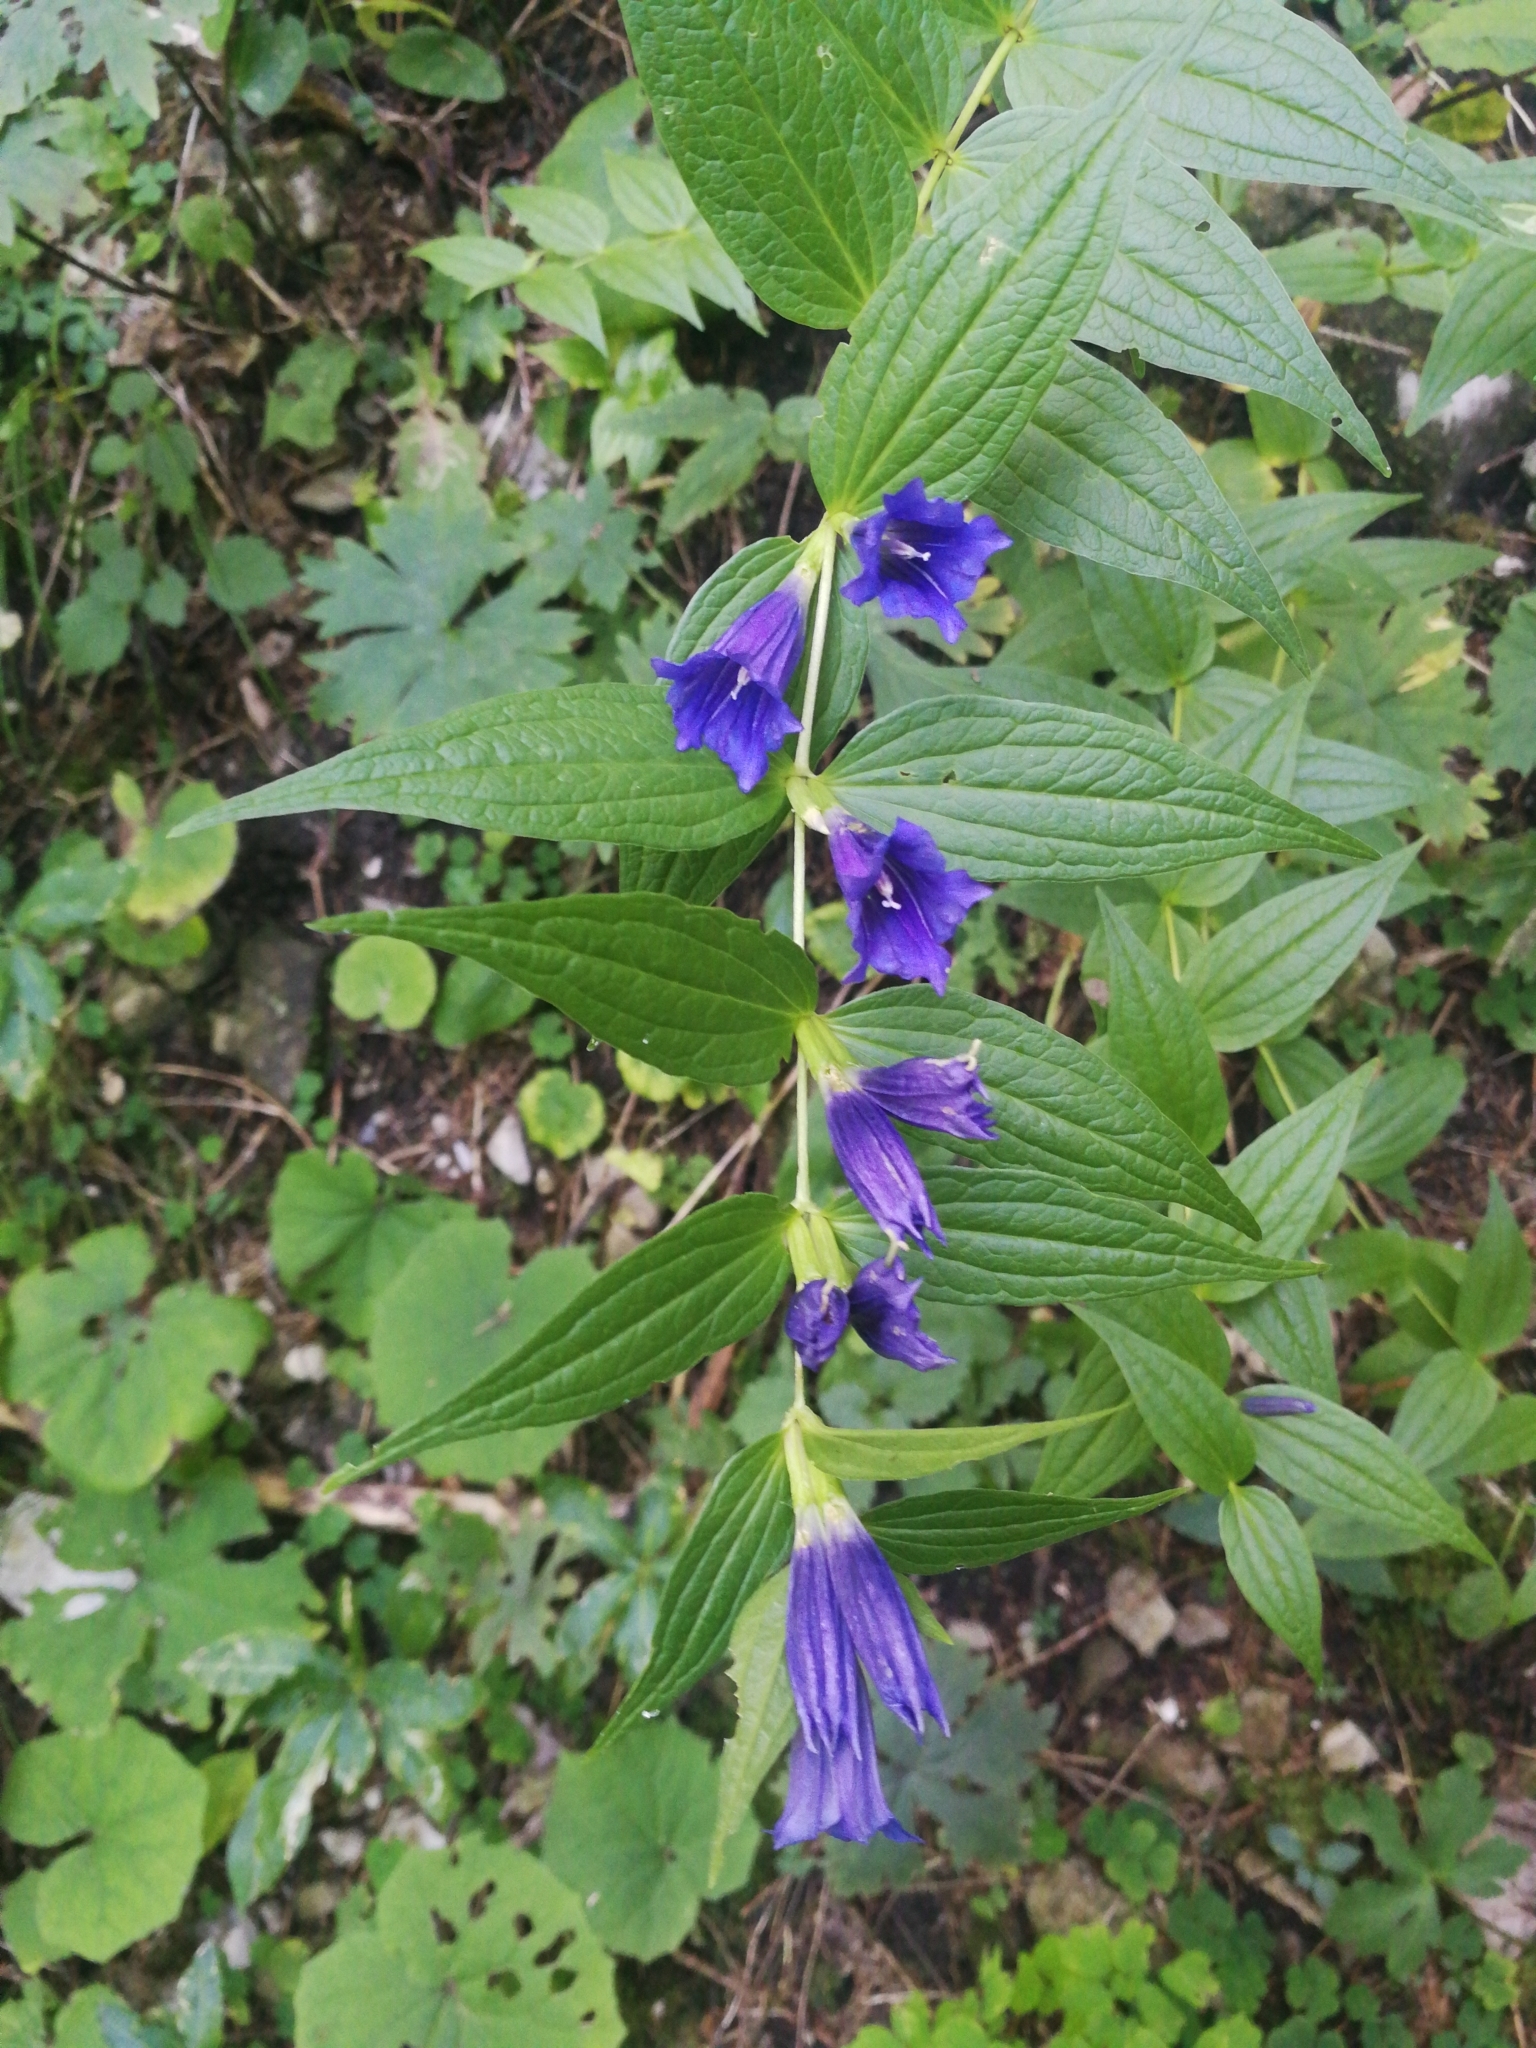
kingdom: Plantae
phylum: Tracheophyta
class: Magnoliopsida
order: Gentianales
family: Gentianaceae
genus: Gentiana
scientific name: Gentiana asclepiadea
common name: Willow gentian
